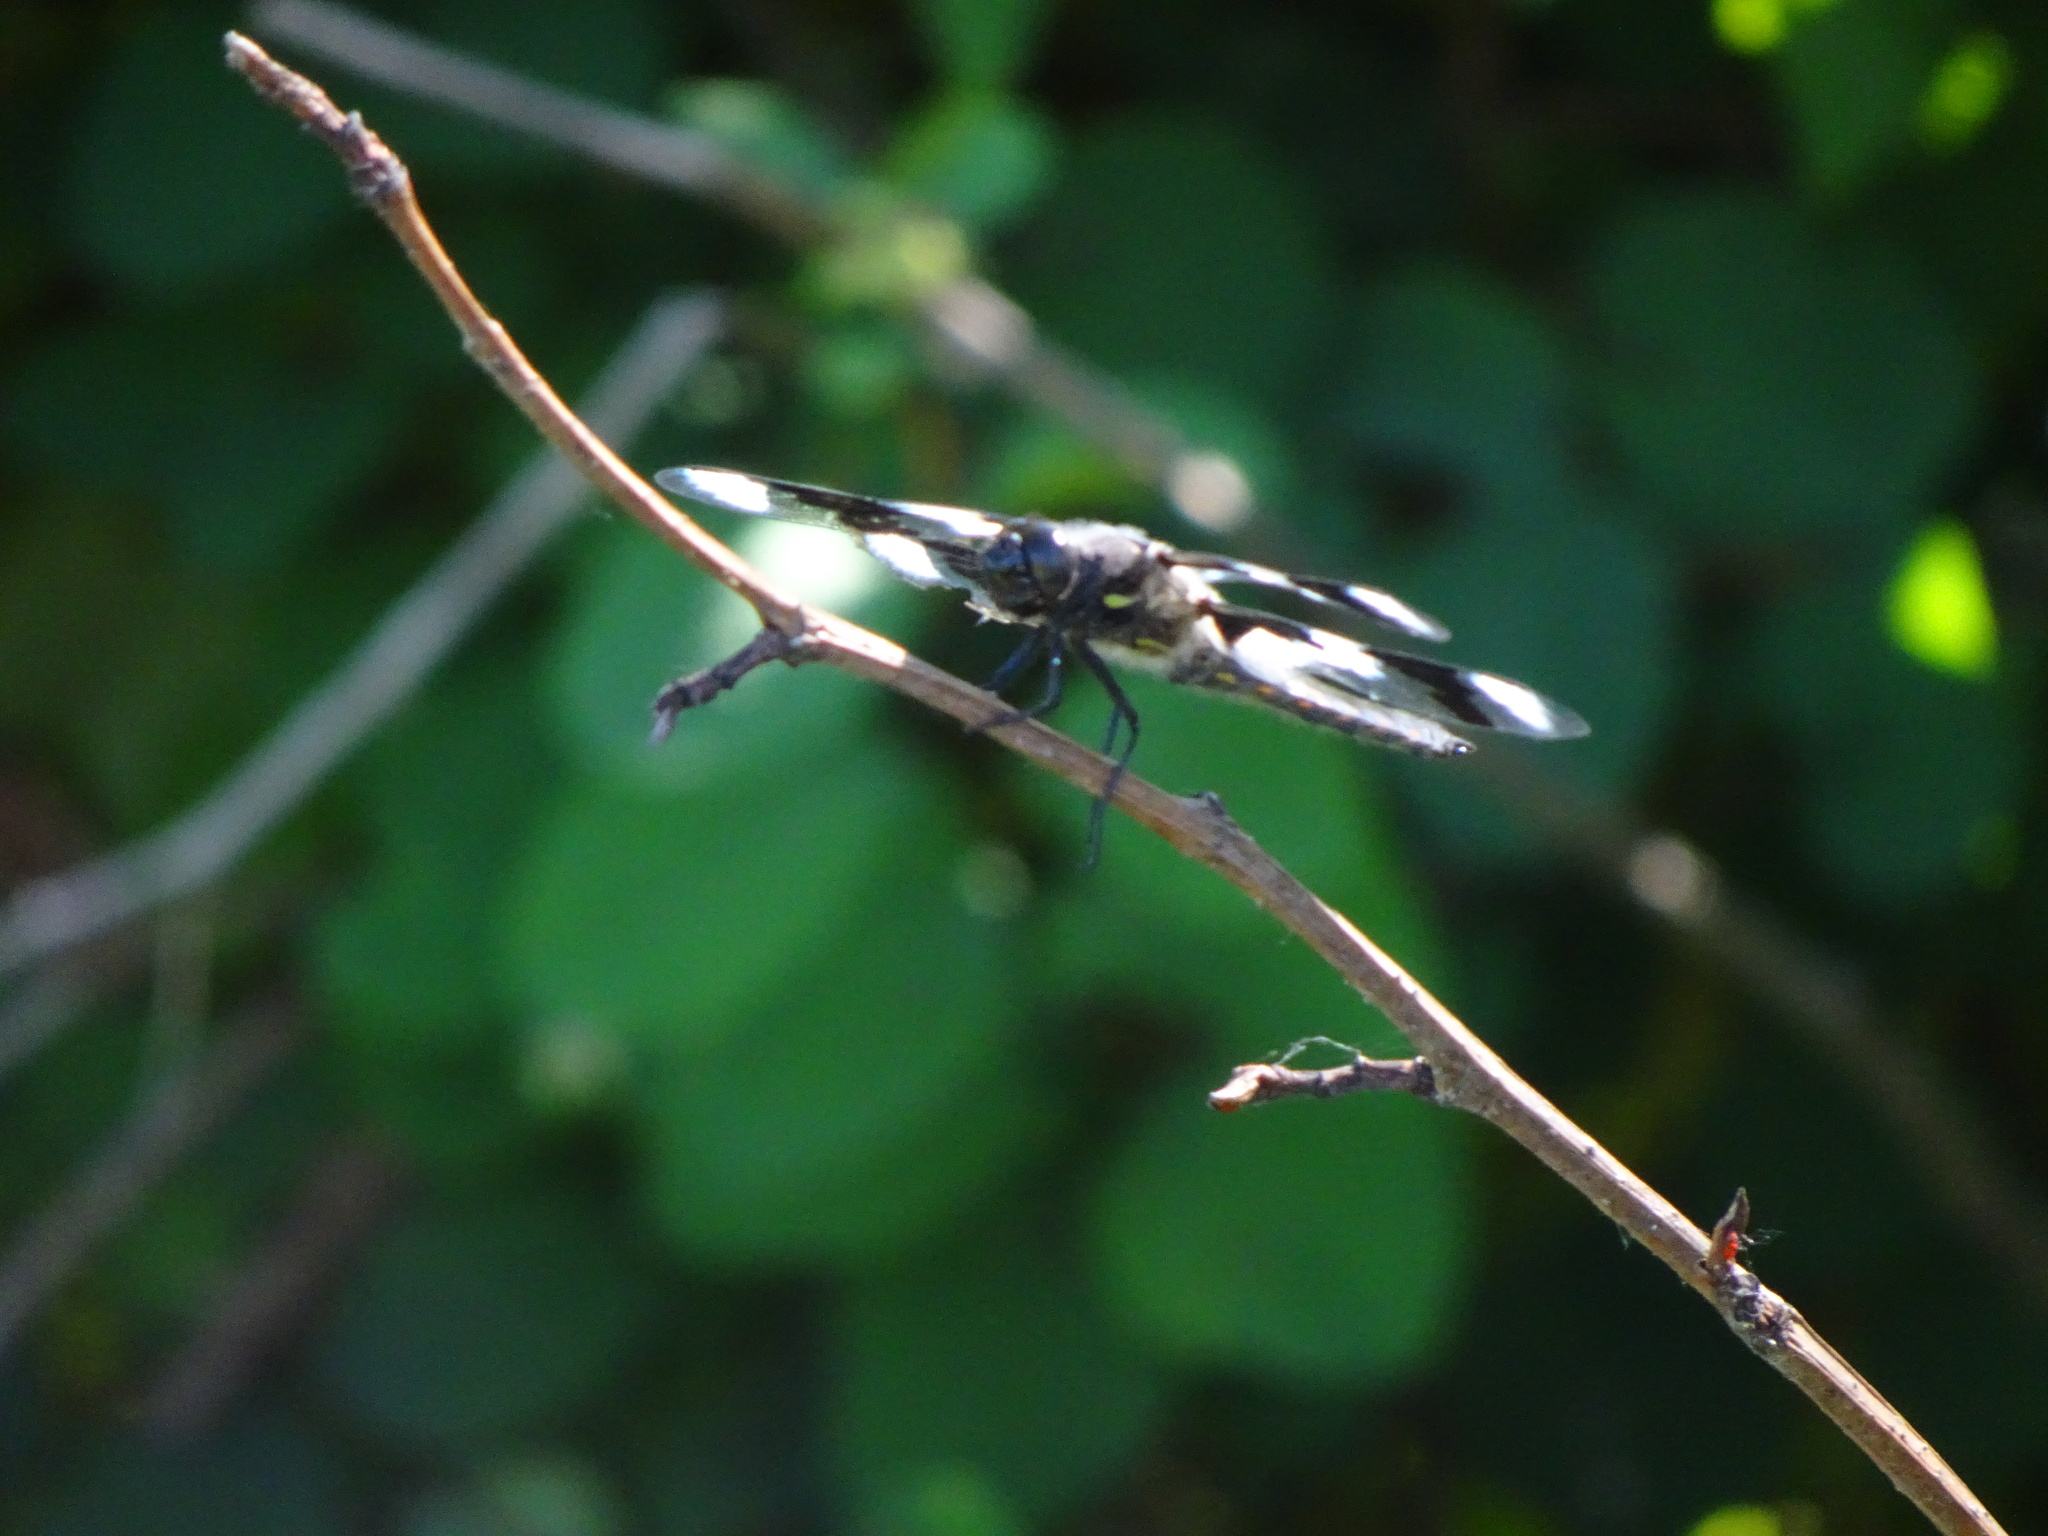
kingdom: Animalia
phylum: Arthropoda
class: Insecta
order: Odonata
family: Libellulidae
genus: Libellula
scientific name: Libellula forensis
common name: Eight-spotted skimmer
